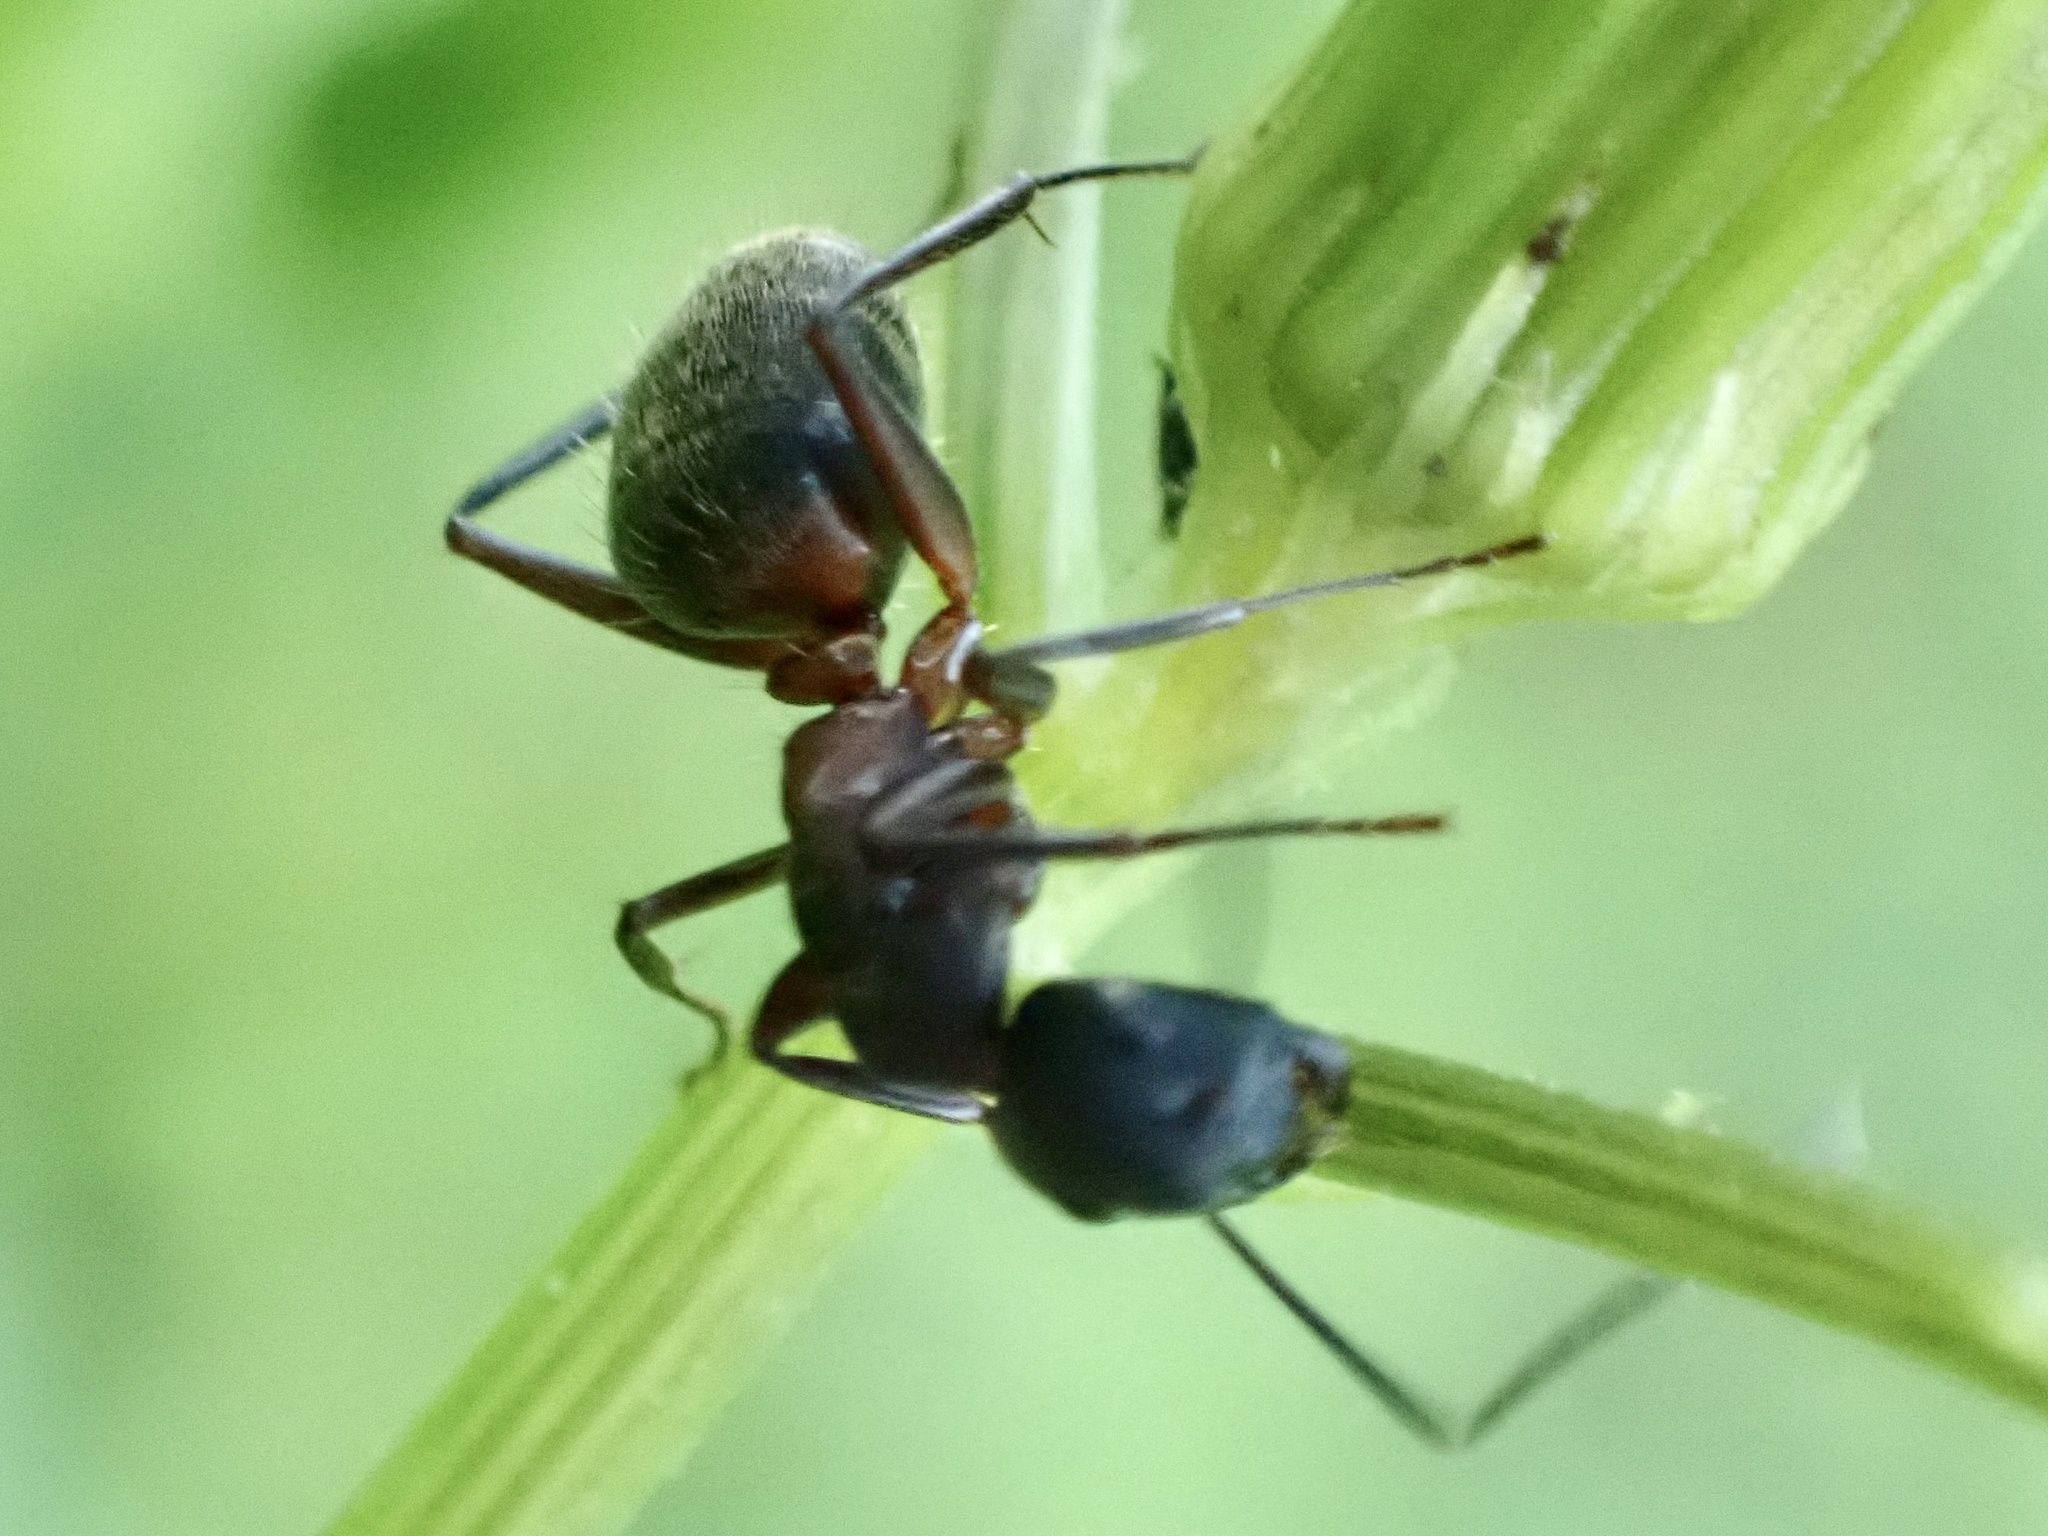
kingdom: Animalia
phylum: Arthropoda
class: Insecta
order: Hymenoptera
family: Formicidae
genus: Camponotus
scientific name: Camponotus chromaiodes
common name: Red carpenter ant
